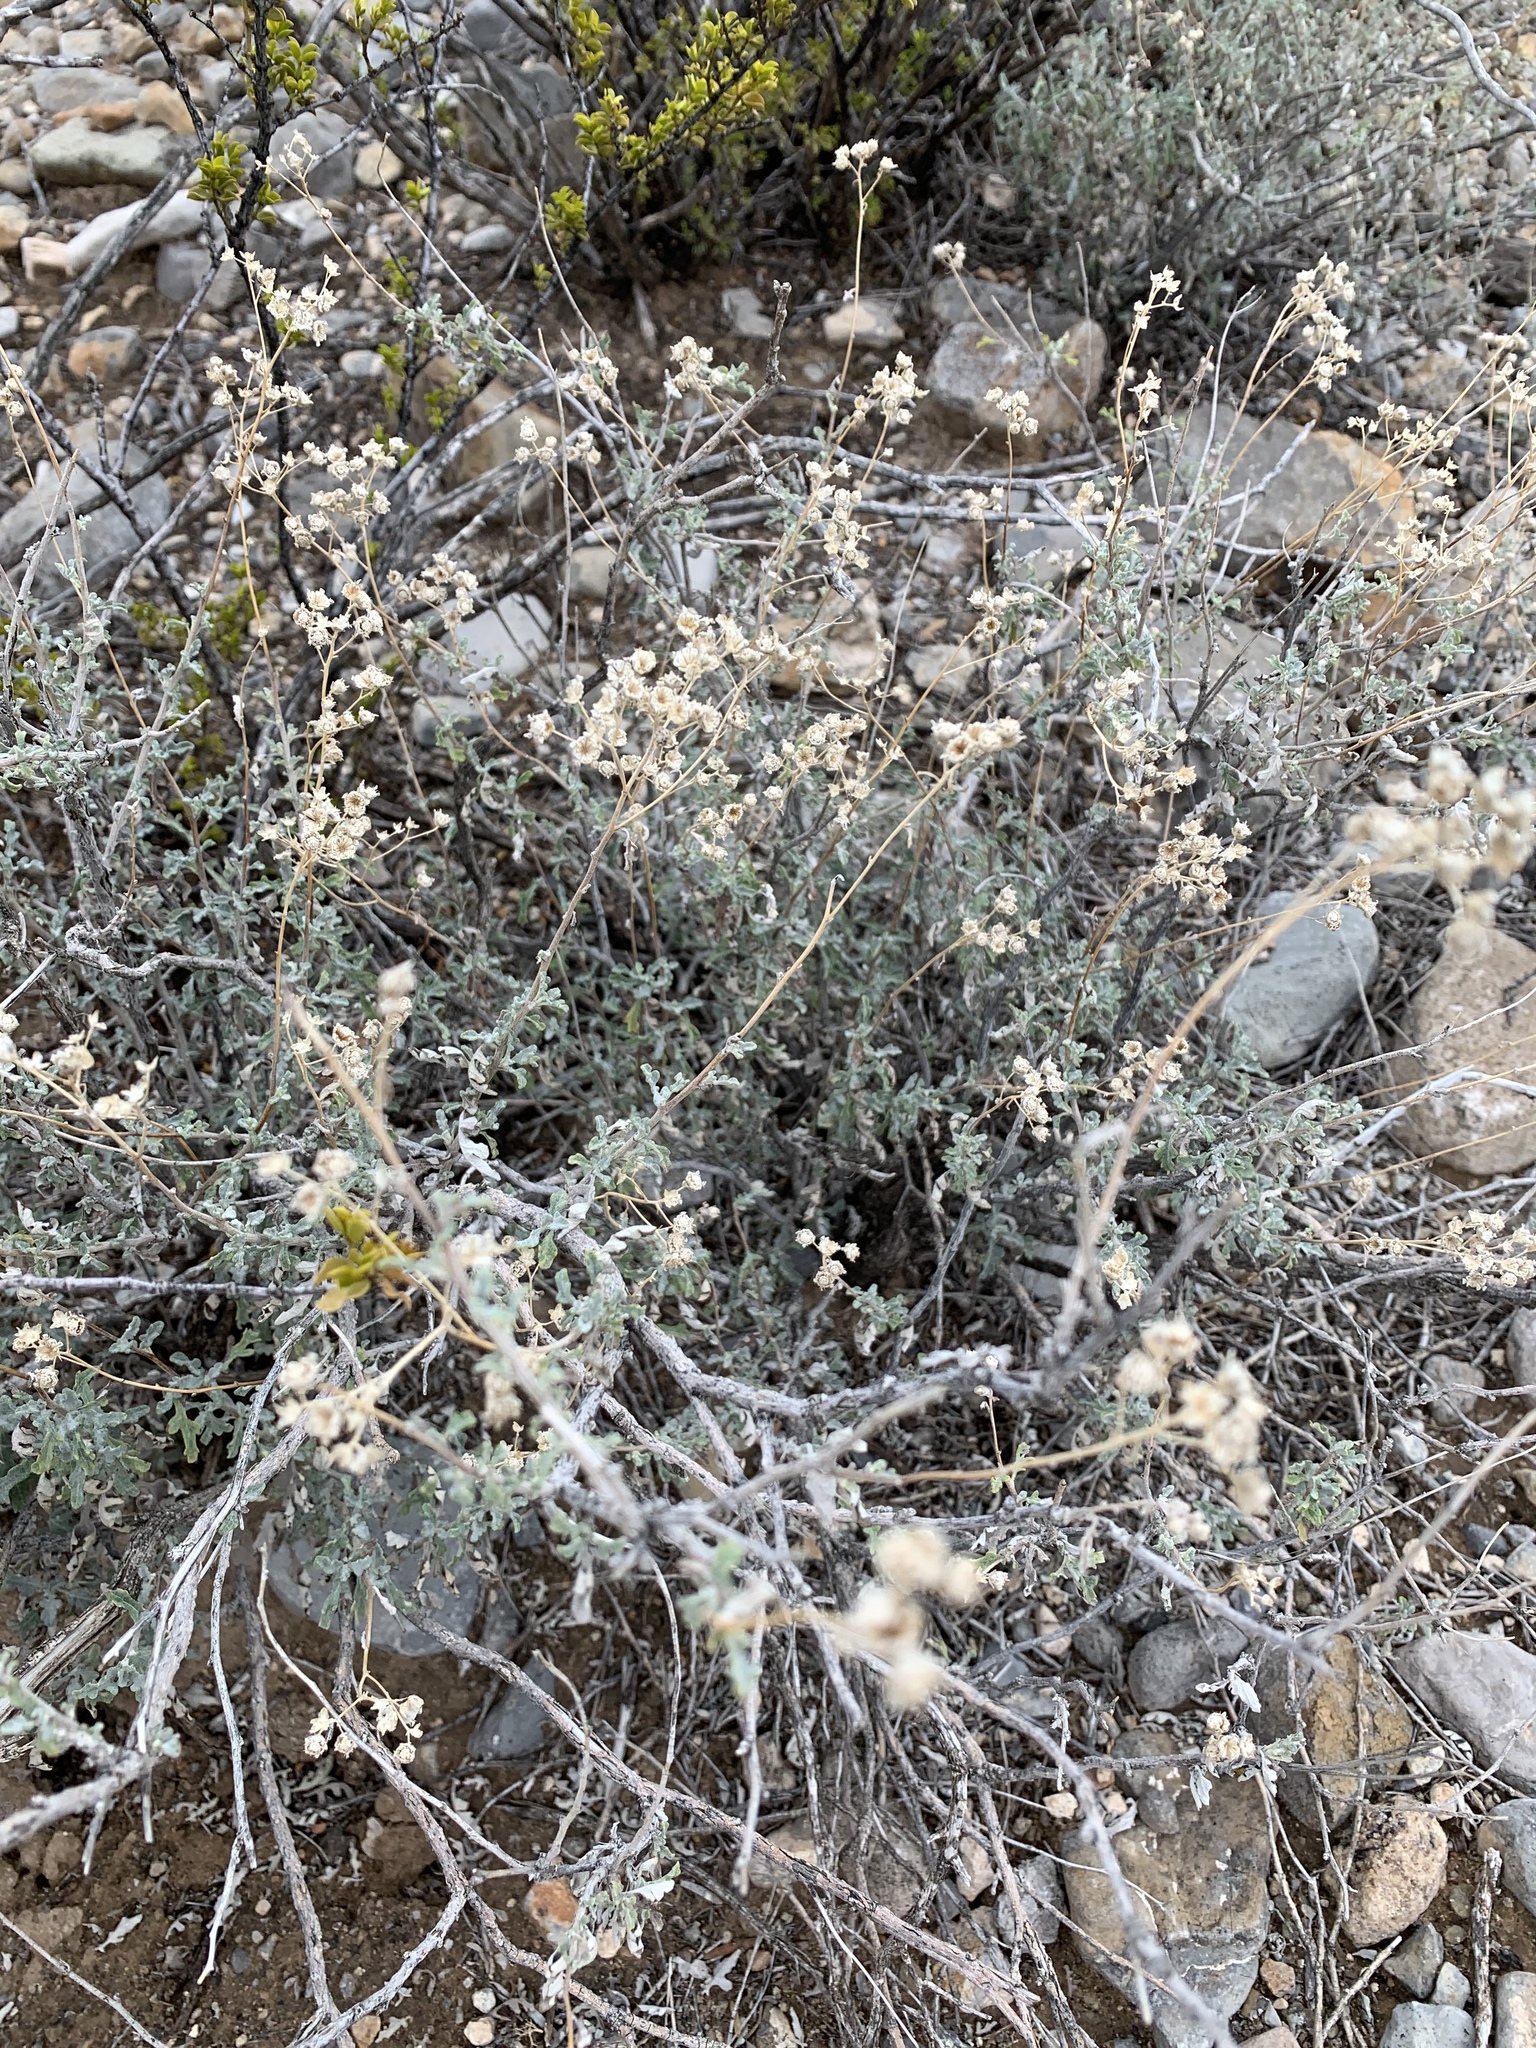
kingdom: Plantae
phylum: Tracheophyta
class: Magnoliopsida
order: Asterales
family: Asteraceae
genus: Parthenium
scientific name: Parthenium incanum
